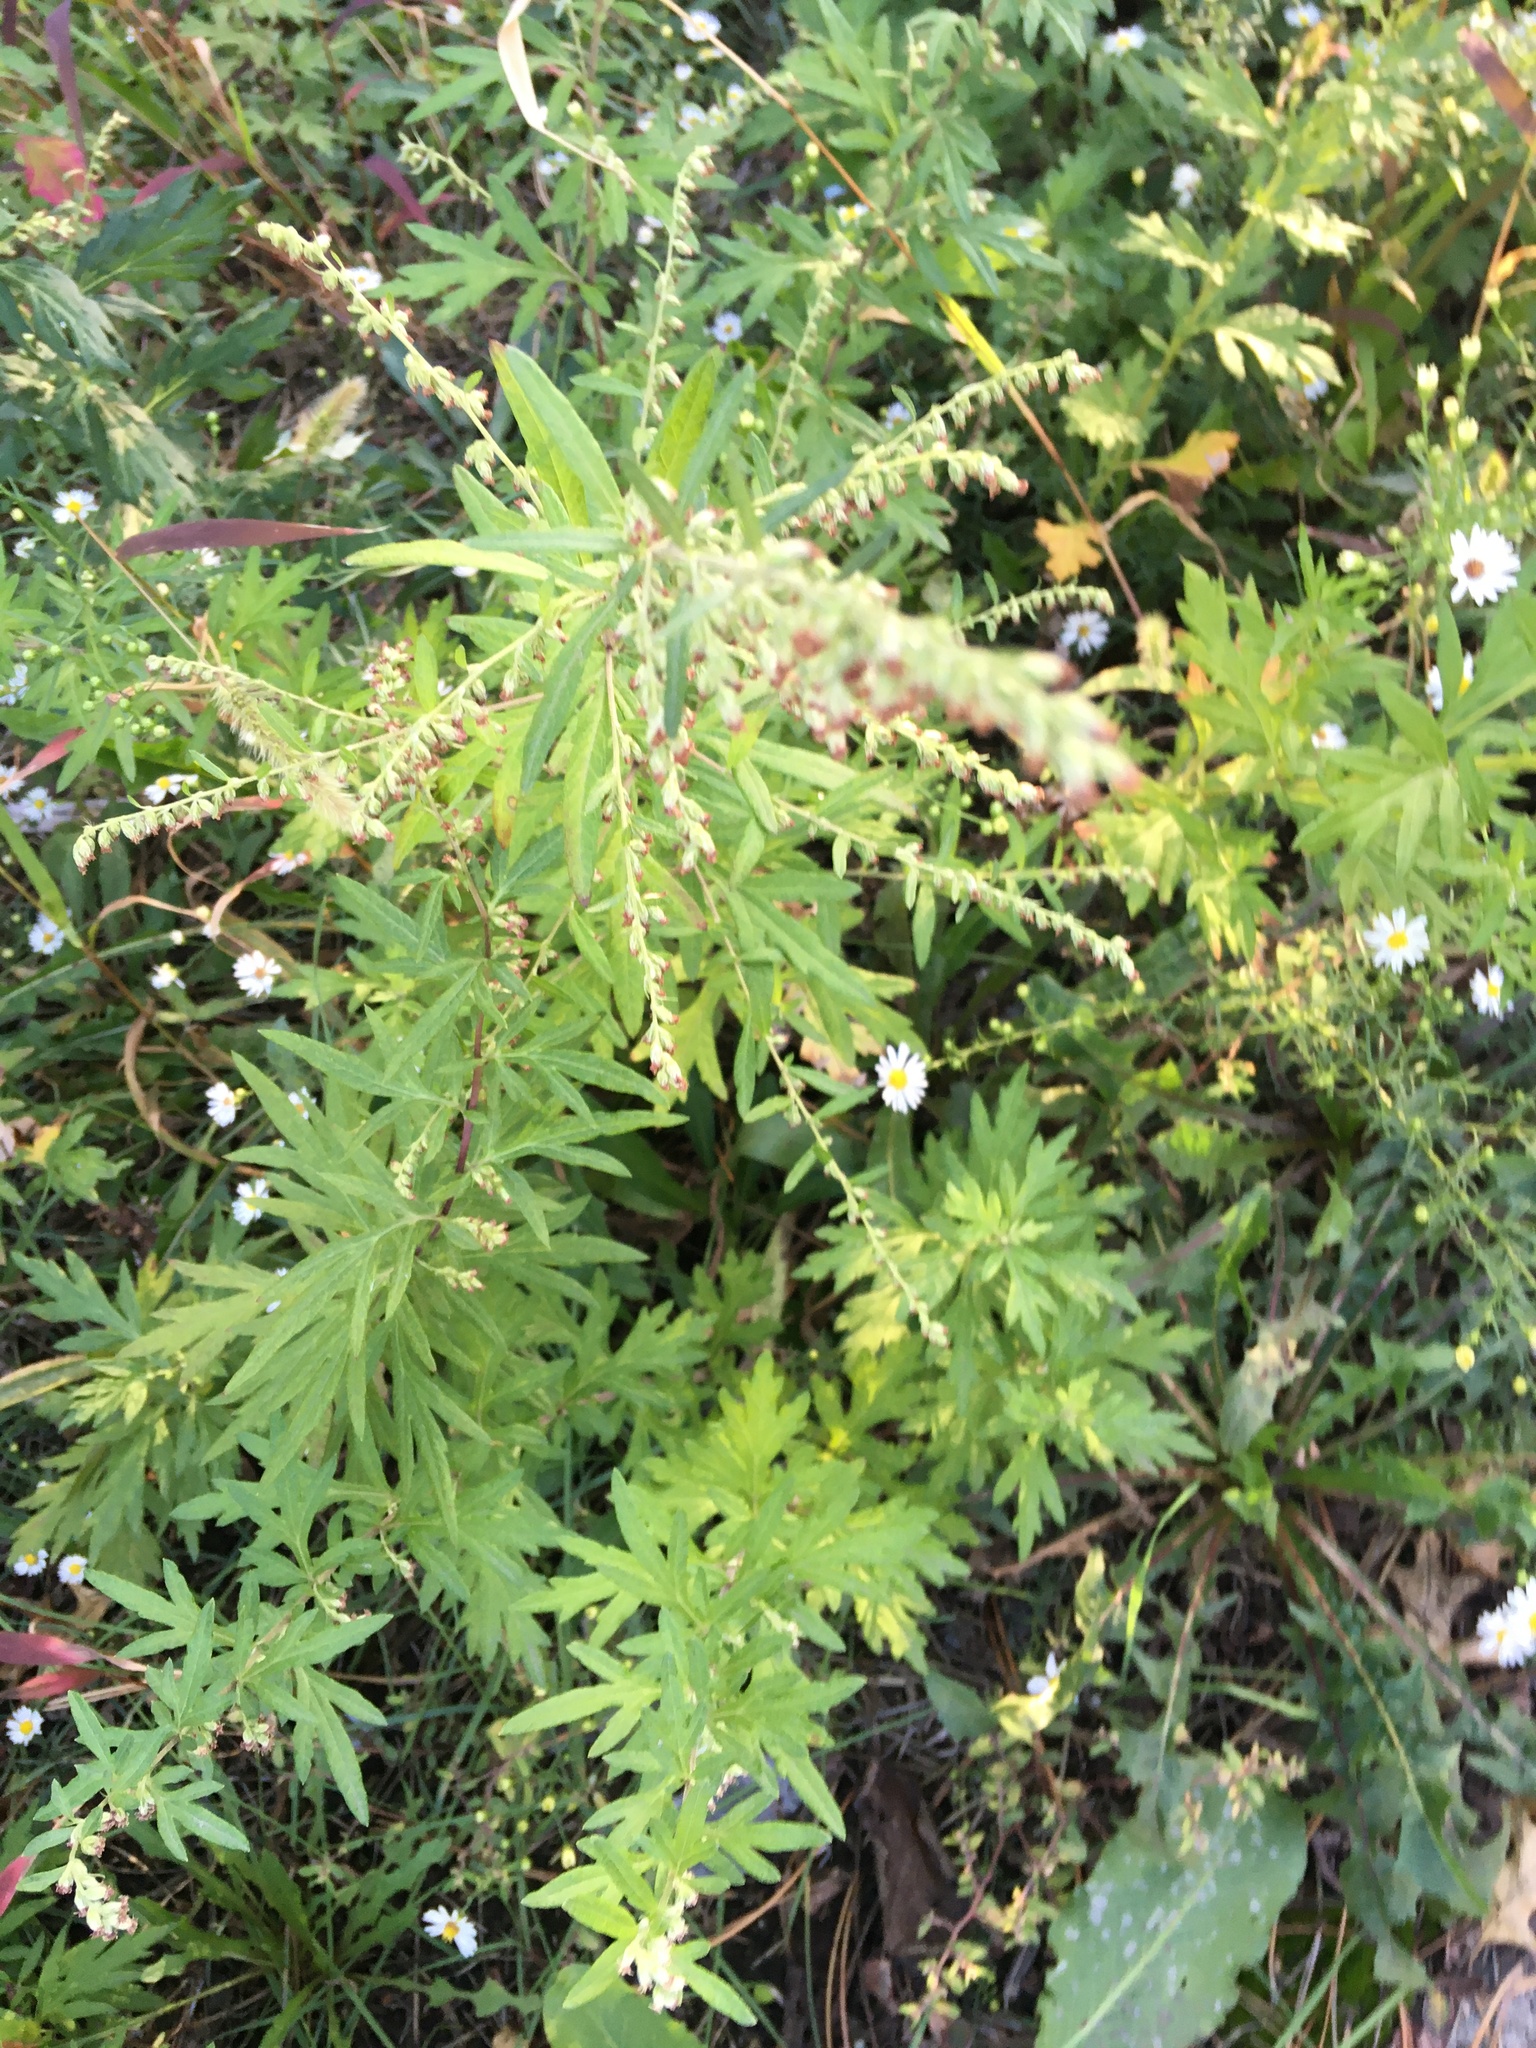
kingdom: Plantae
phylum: Tracheophyta
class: Magnoliopsida
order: Asterales
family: Asteraceae
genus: Artemisia
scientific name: Artemisia vulgaris
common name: Mugwort
